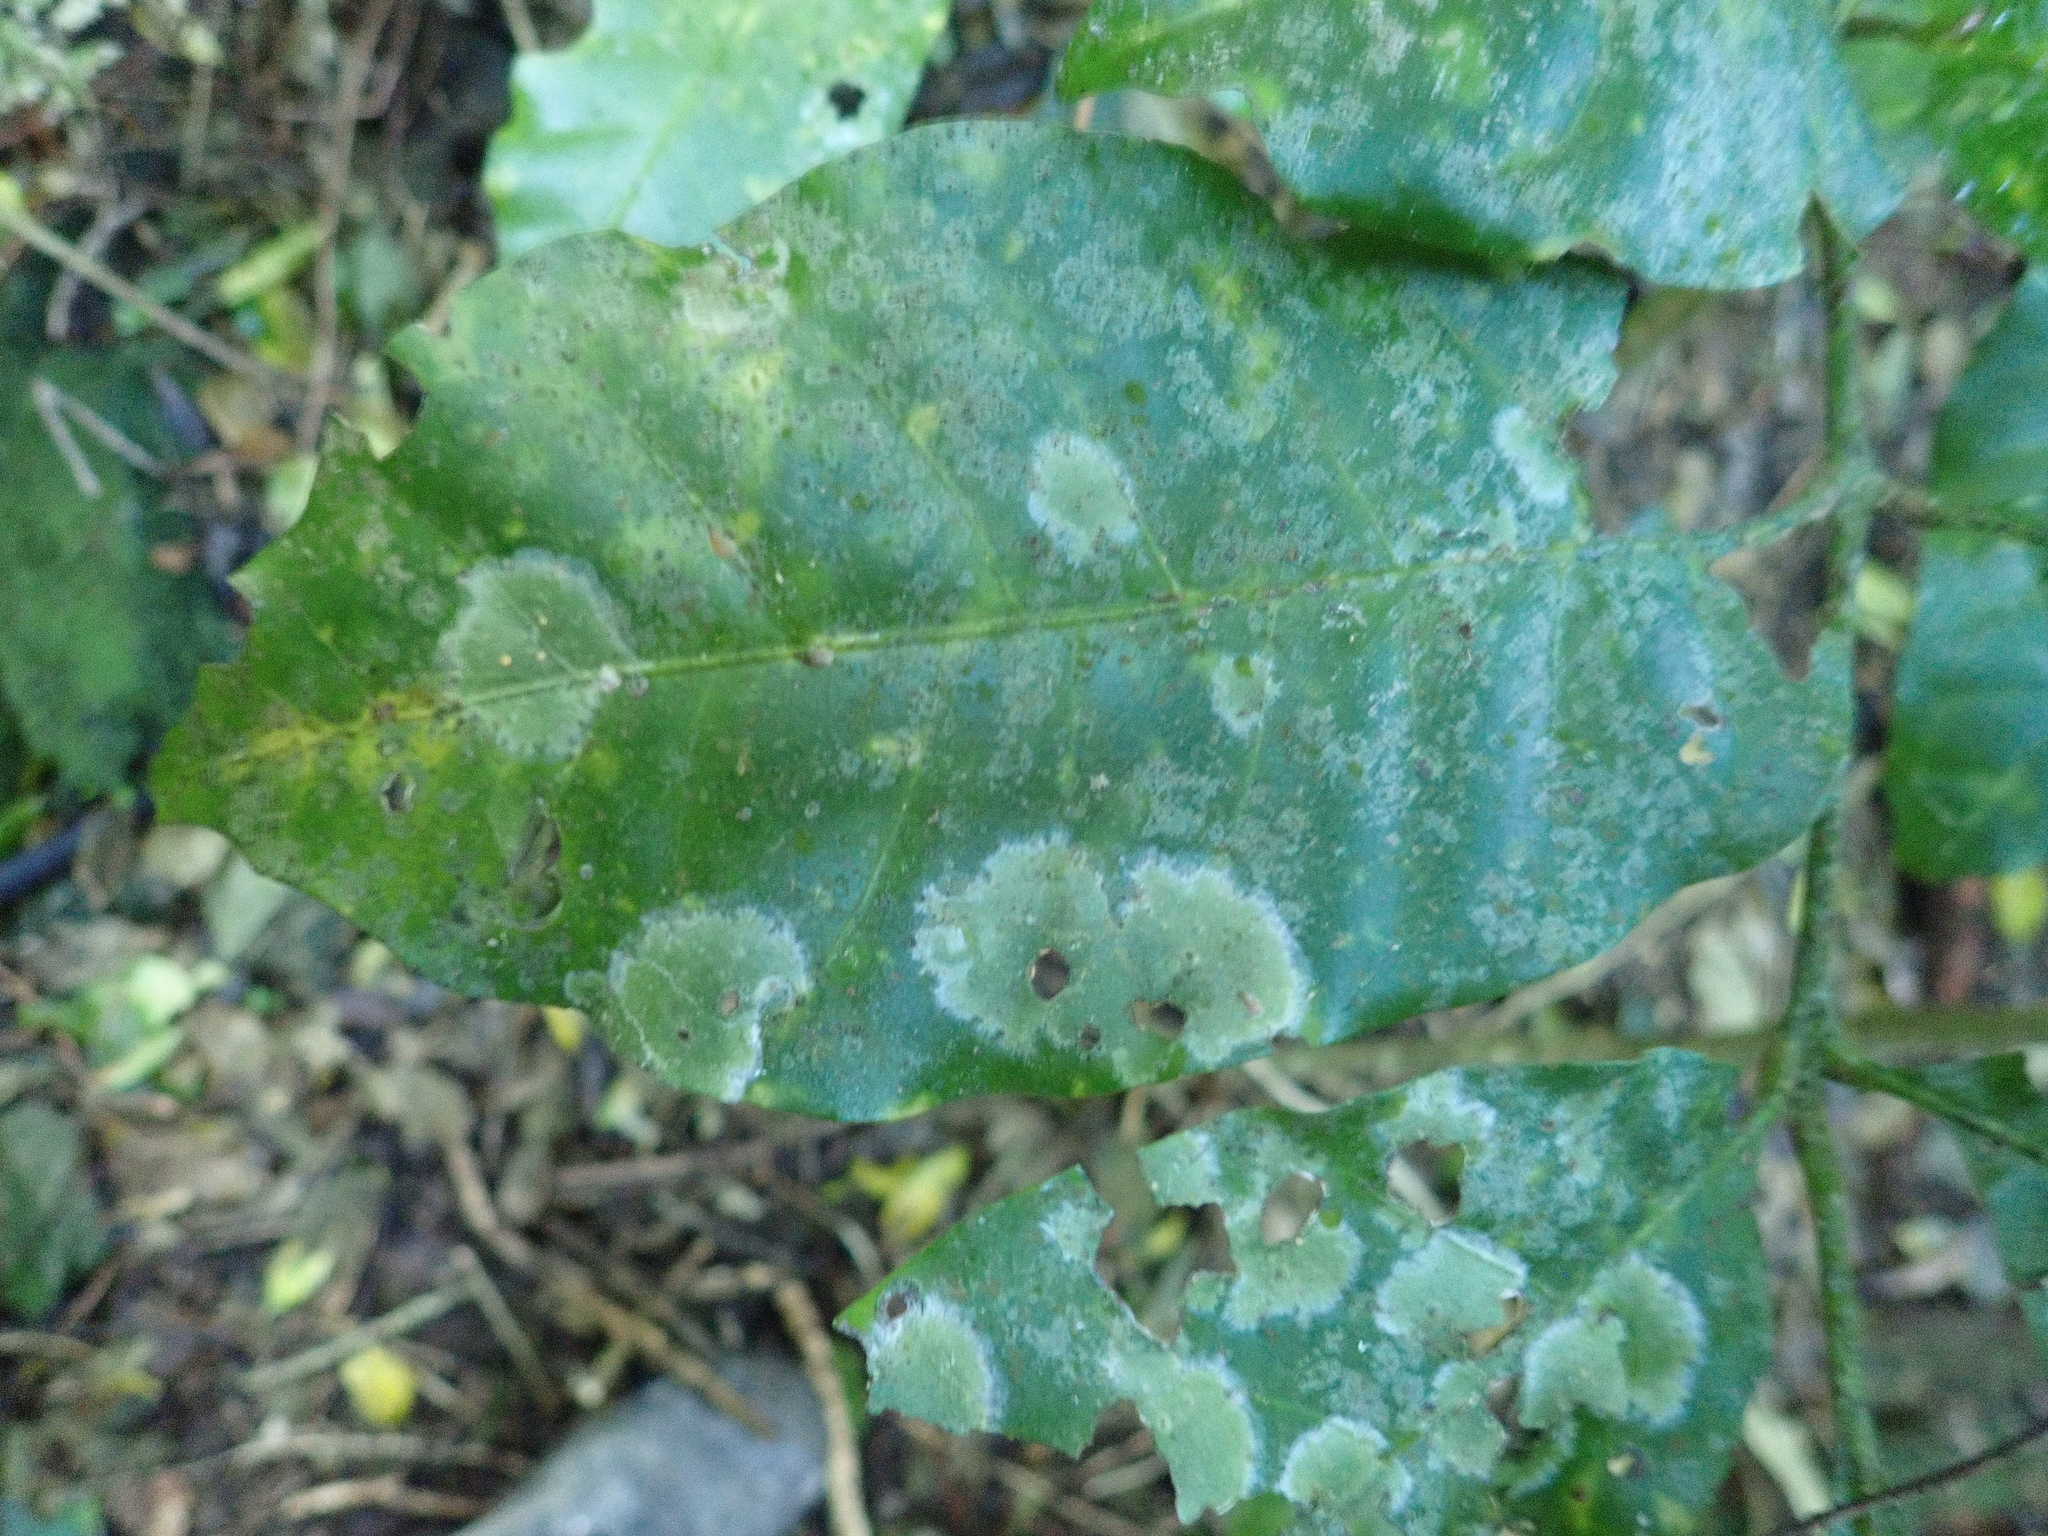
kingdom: Fungi
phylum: Ascomycota
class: Lecanoromycetes
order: Ostropales
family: Coenogoniaceae
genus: Coenogonium
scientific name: Coenogonium fallaciosum
